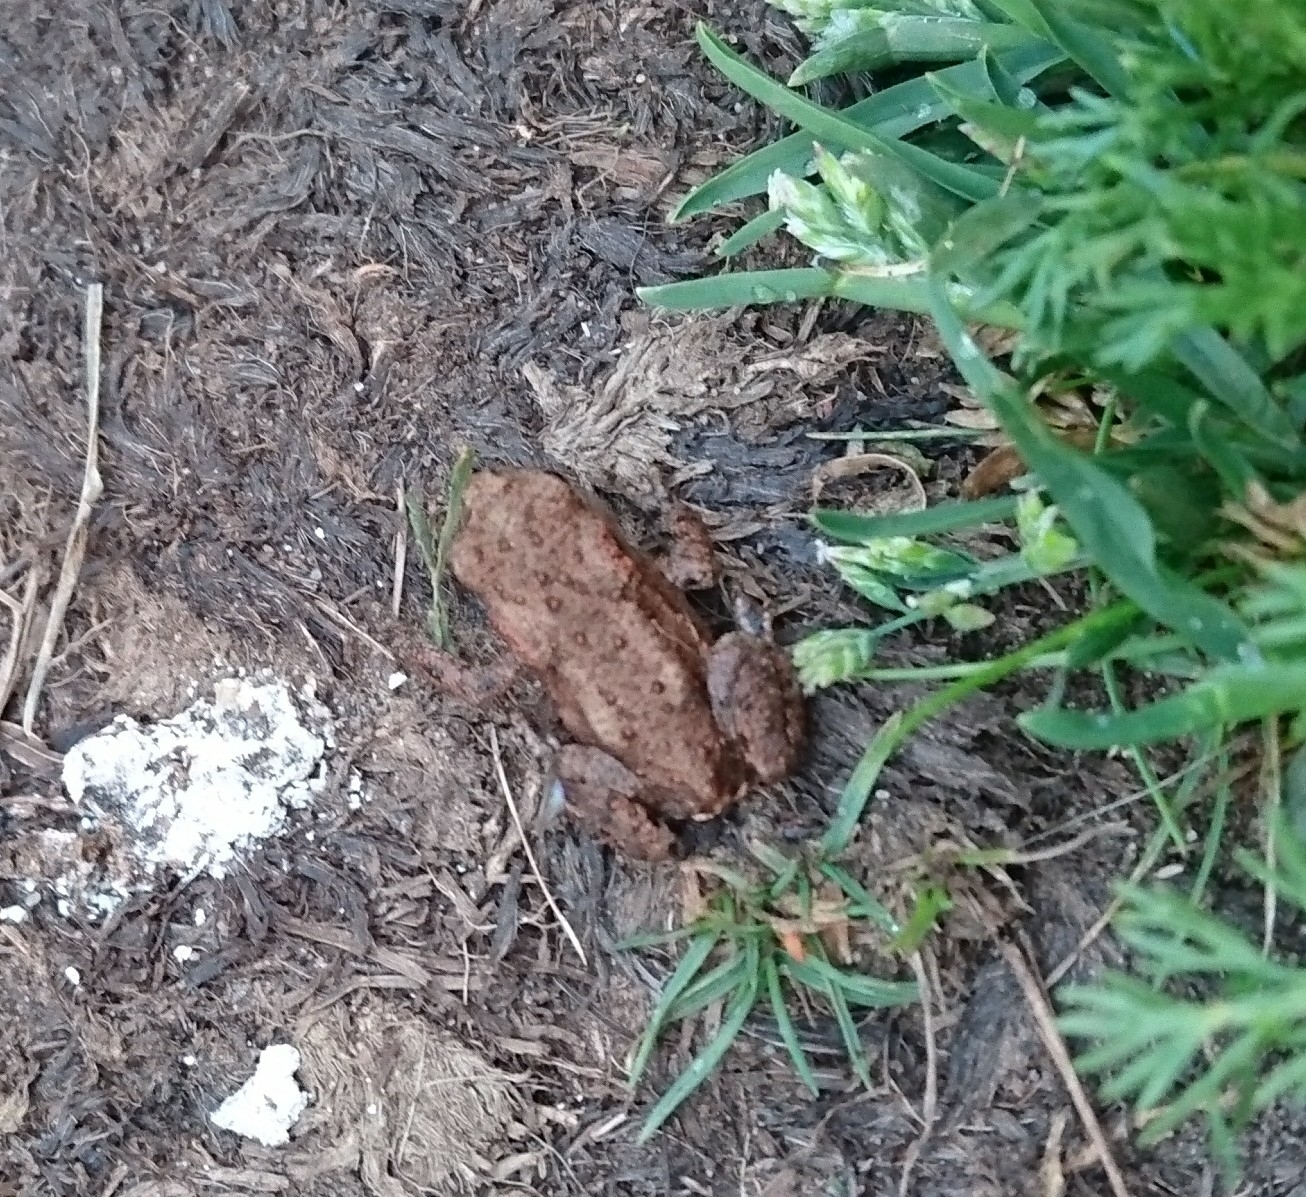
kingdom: Animalia
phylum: Chordata
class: Amphibia
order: Anura
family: Bufonidae
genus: Bufo
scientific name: Bufo bufo
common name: Common toad
